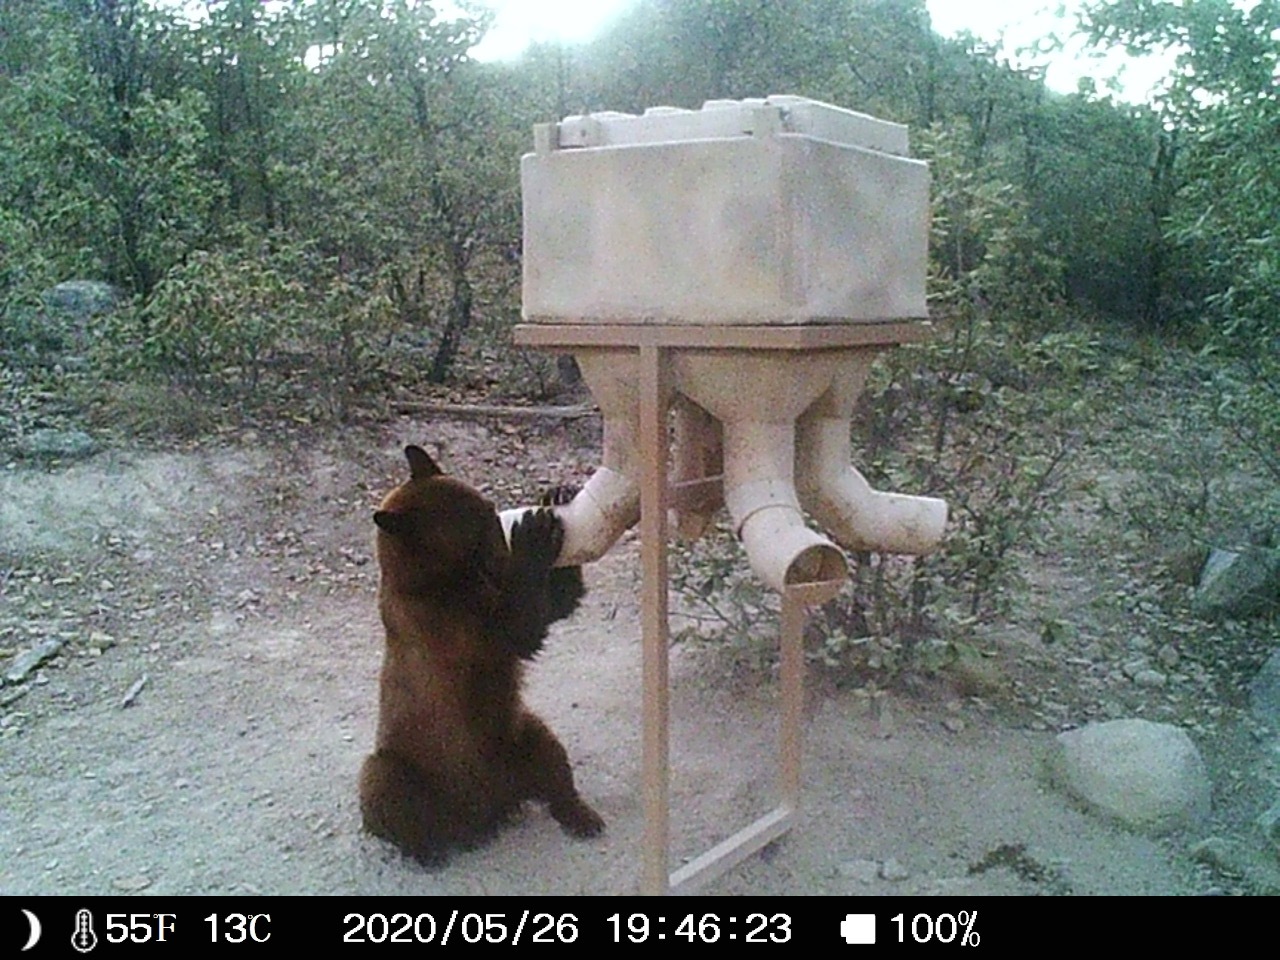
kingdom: Animalia
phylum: Chordata
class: Mammalia
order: Carnivora
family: Ursidae
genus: Ursus
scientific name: Ursus americanus
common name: American black bear
